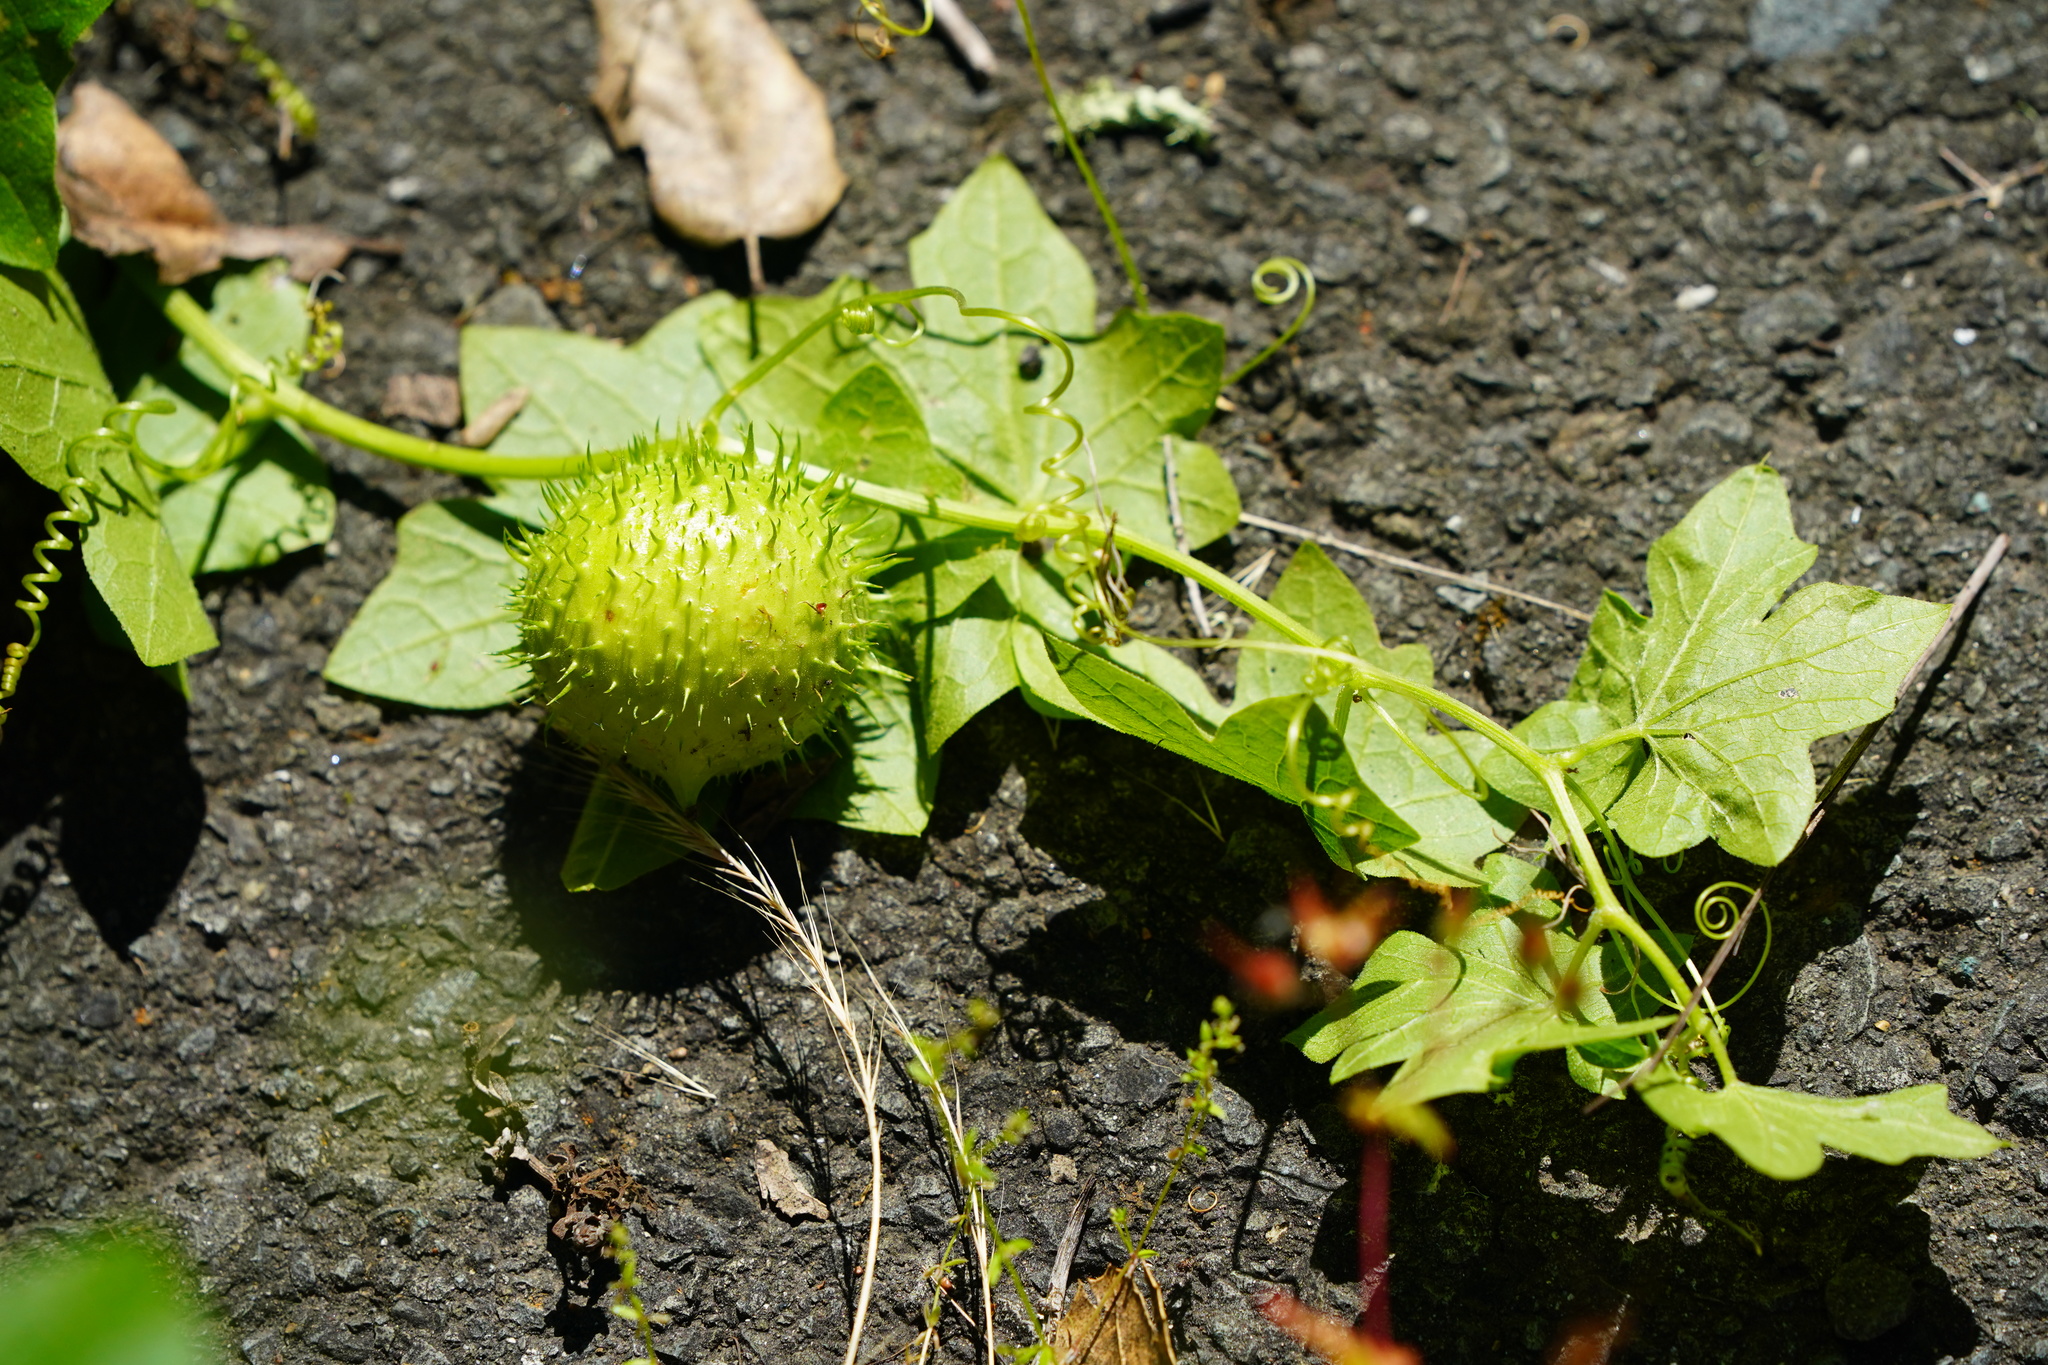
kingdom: Plantae
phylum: Tracheophyta
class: Magnoliopsida
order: Cucurbitales
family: Cucurbitaceae
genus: Marah
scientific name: Marah fabacea
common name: California manroot
